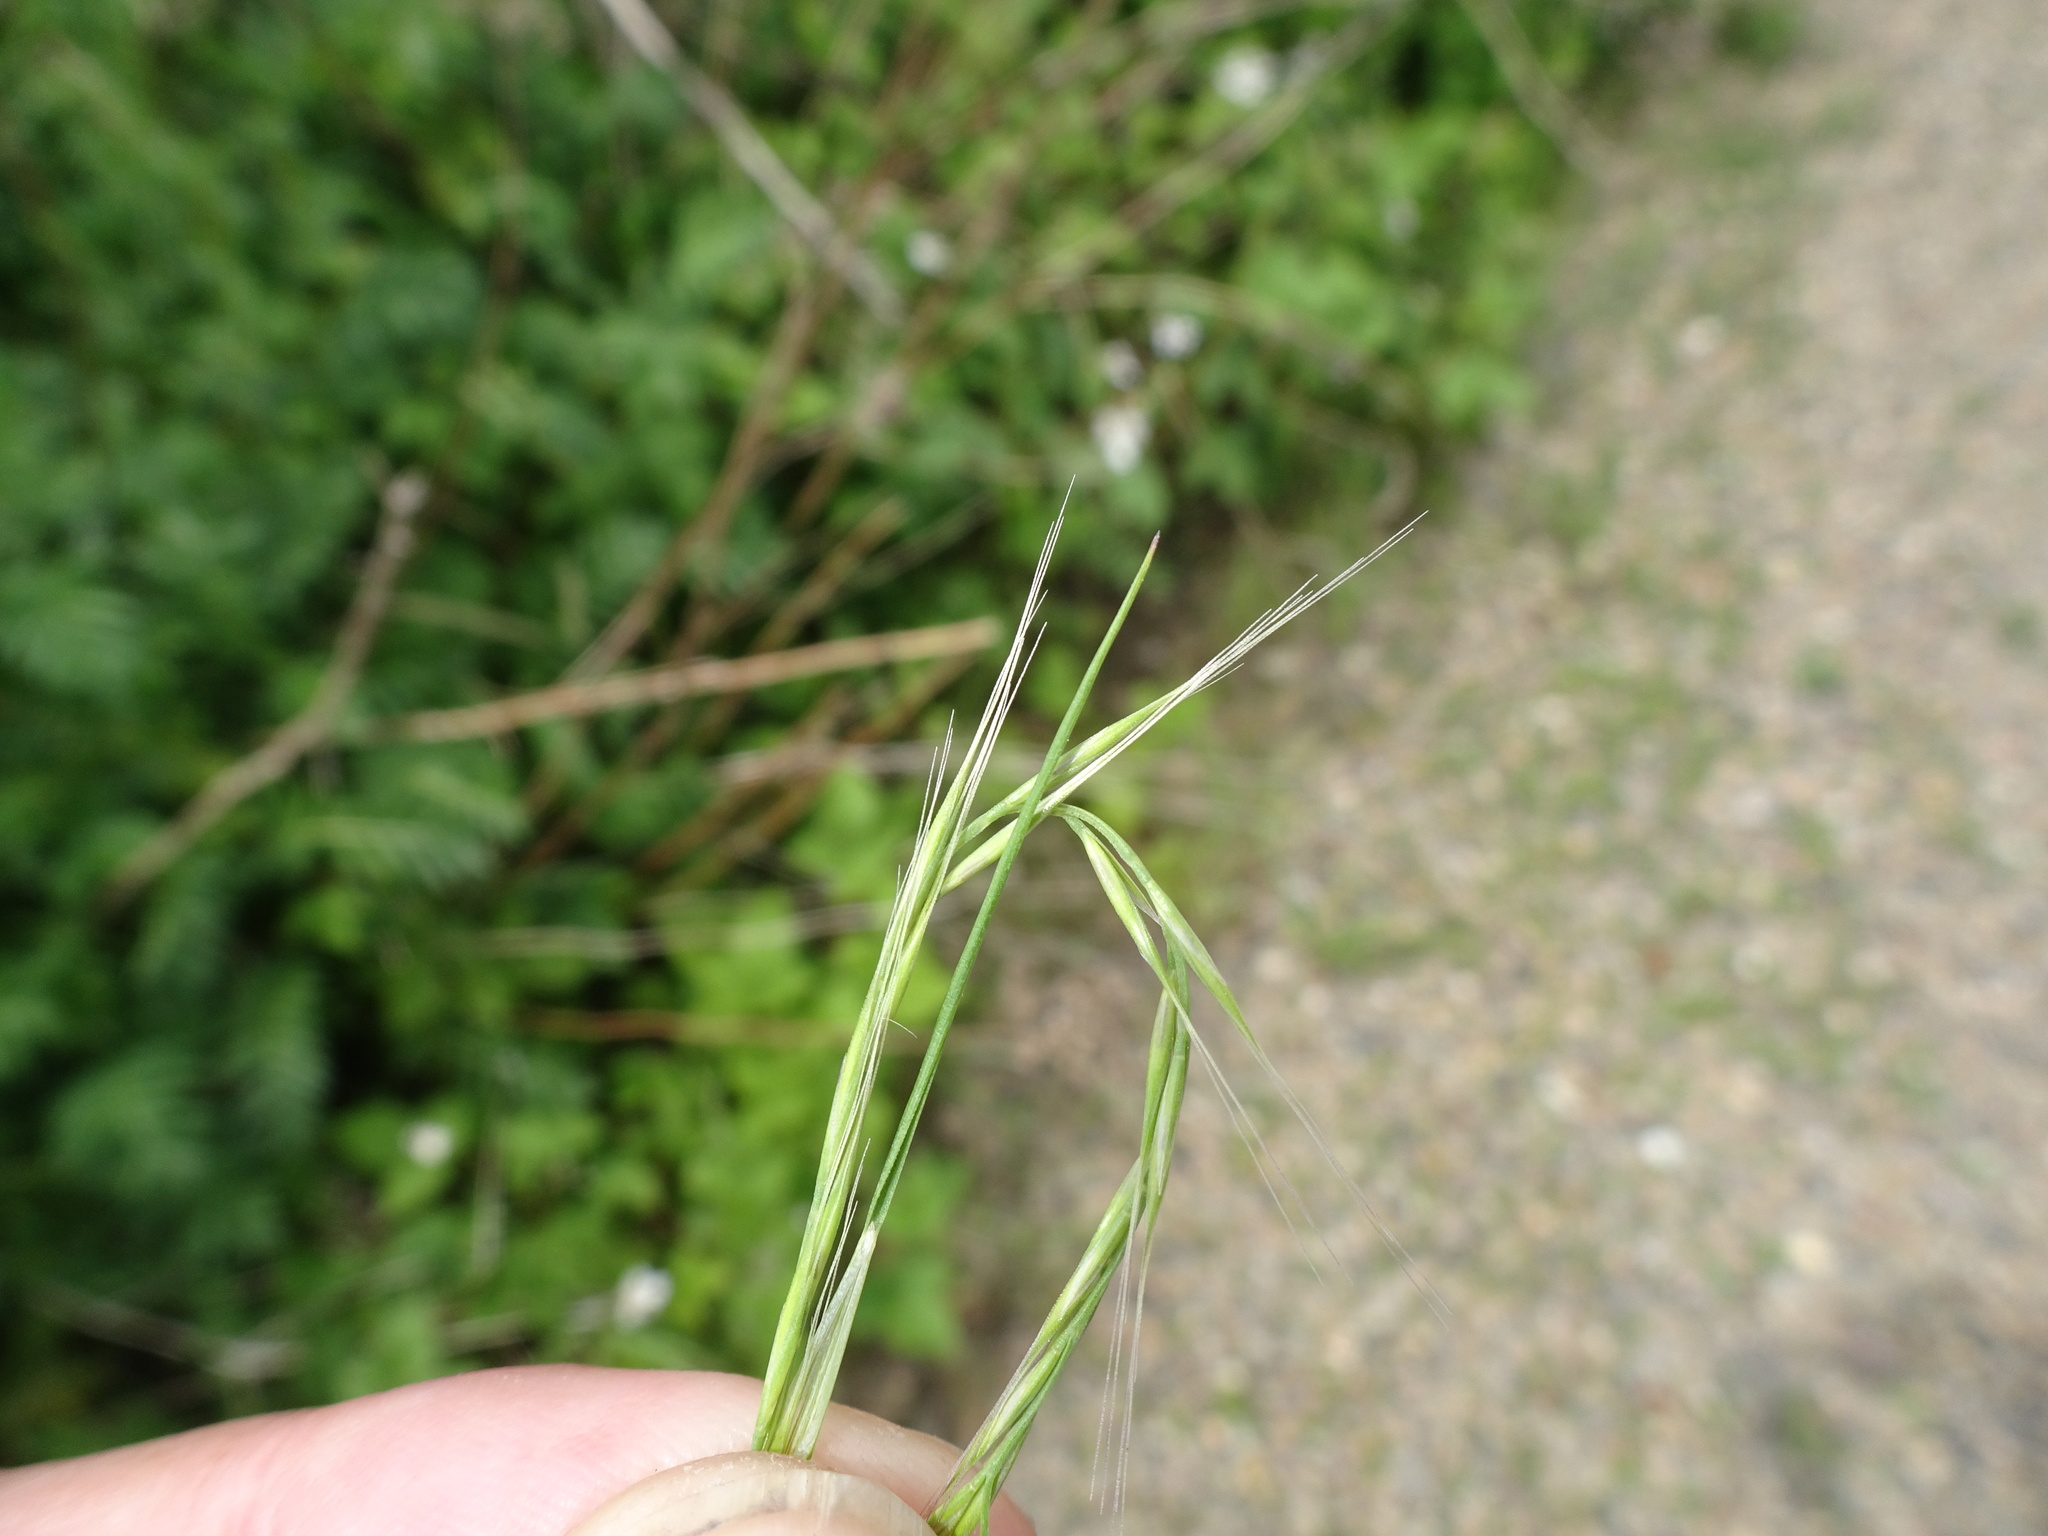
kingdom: Plantae
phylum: Tracheophyta
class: Liliopsida
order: Poales
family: Poaceae
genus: Festuca
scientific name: Festuca myuros
